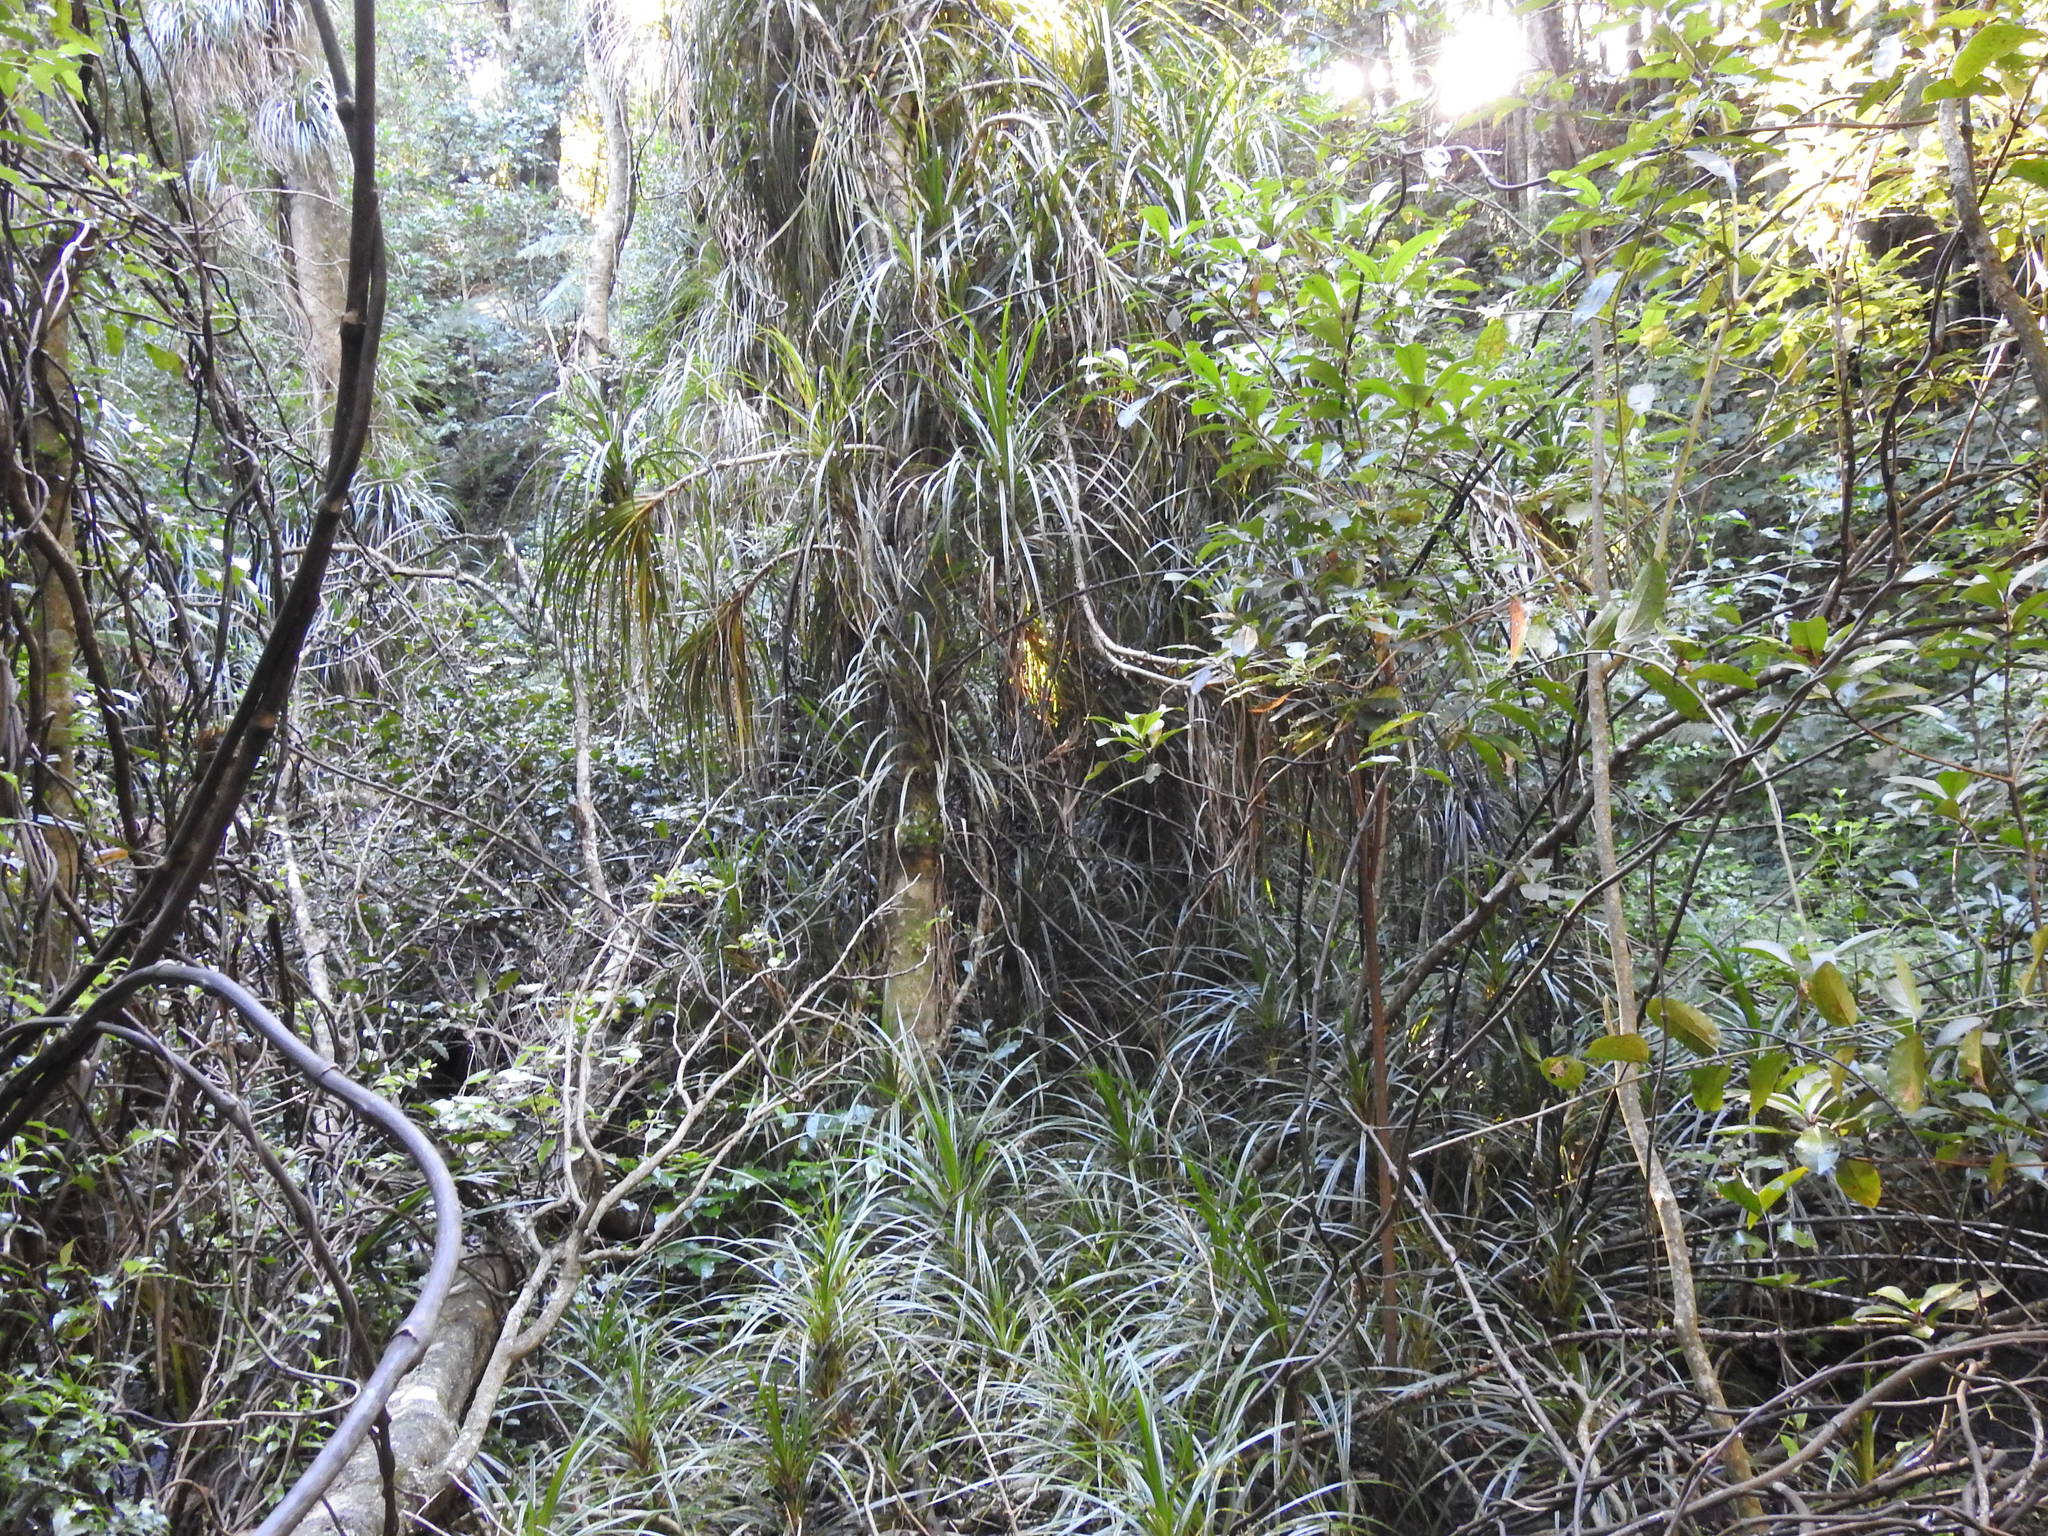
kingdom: Plantae
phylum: Tracheophyta
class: Liliopsida
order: Pandanales
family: Pandanaceae
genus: Freycinetia
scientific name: Freycinetia banksii
